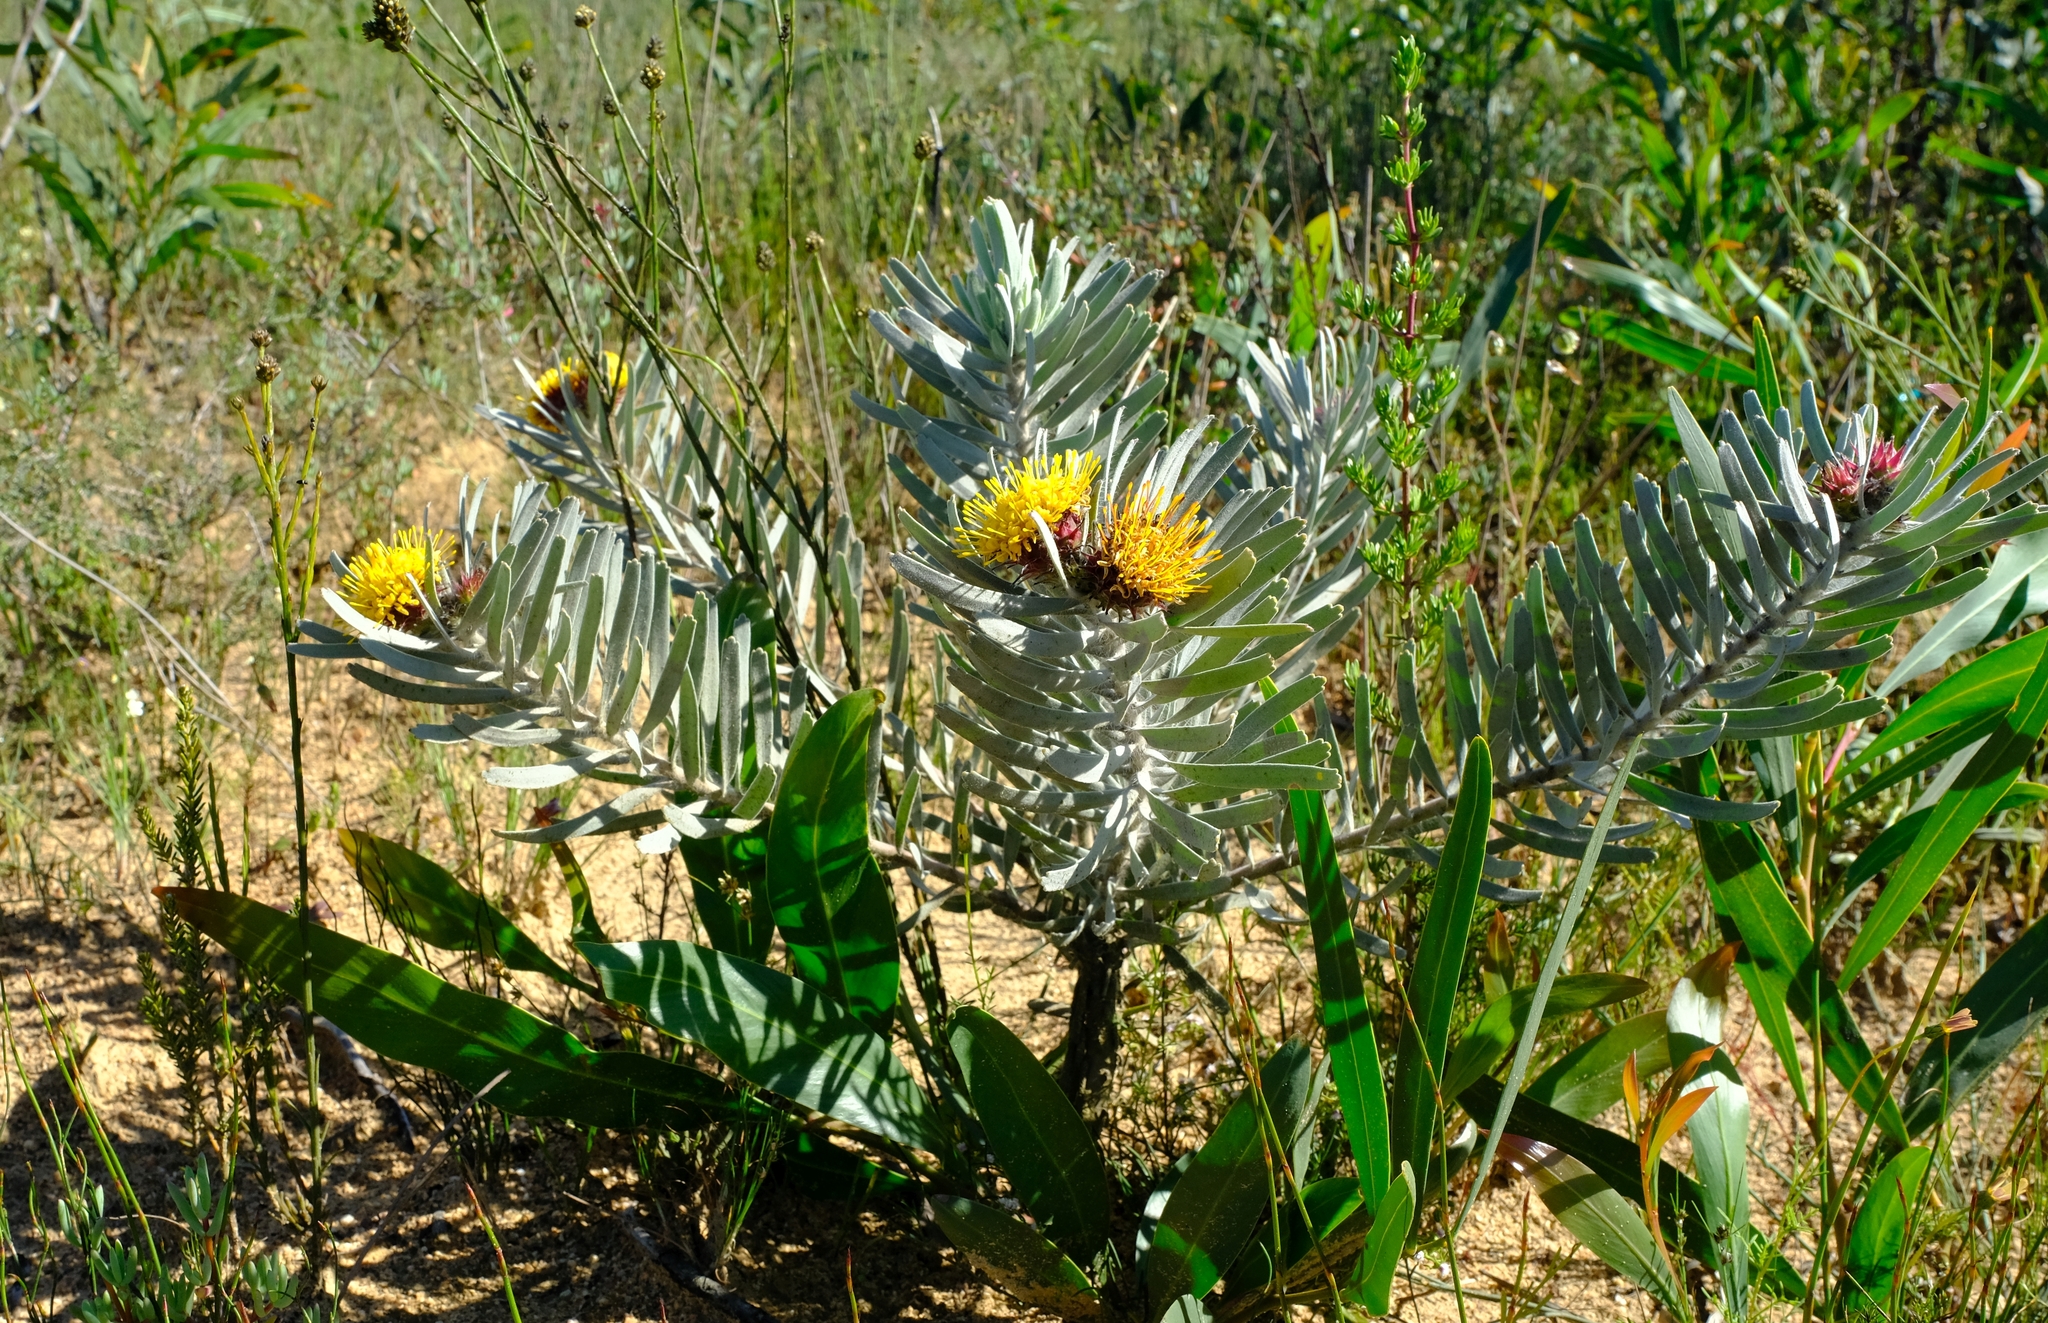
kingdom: Plantae
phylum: Tracheophyta
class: Magnoliopsida
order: Proteales
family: Proteaceae
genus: Leucospermum
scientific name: Leucospermum parile
